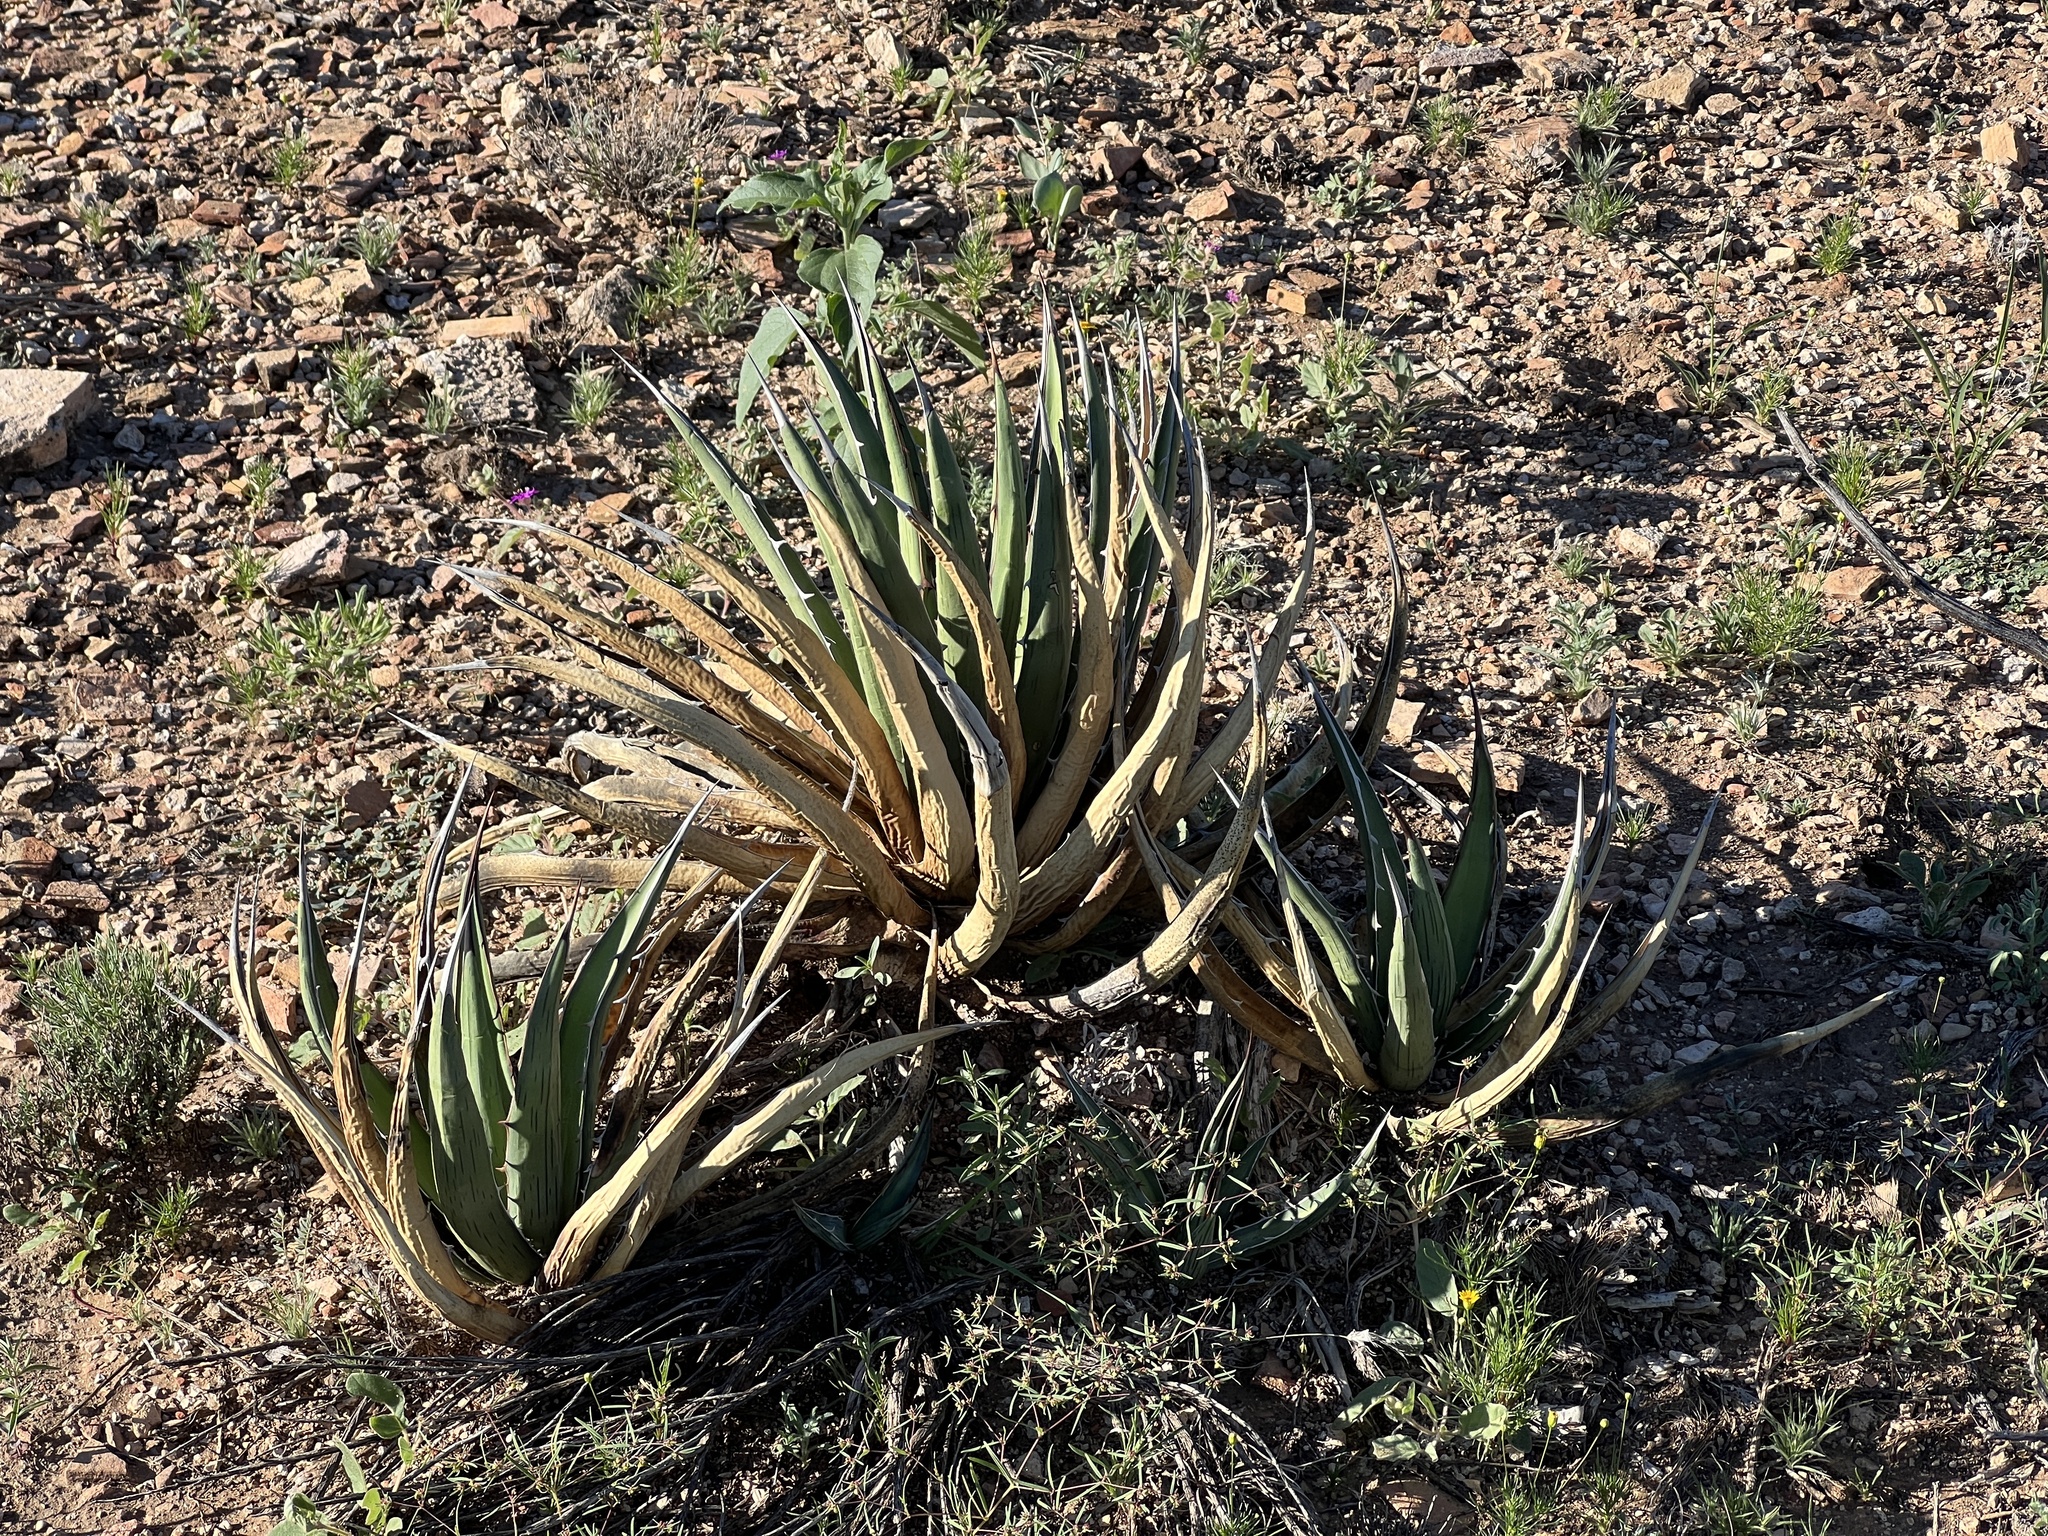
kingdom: Plantae
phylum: Tracheophyta
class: Liliopsida
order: Asparagales
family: Asparagaceae
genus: Agave
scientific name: Agave lechuguilla
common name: Lecheguilla agave
